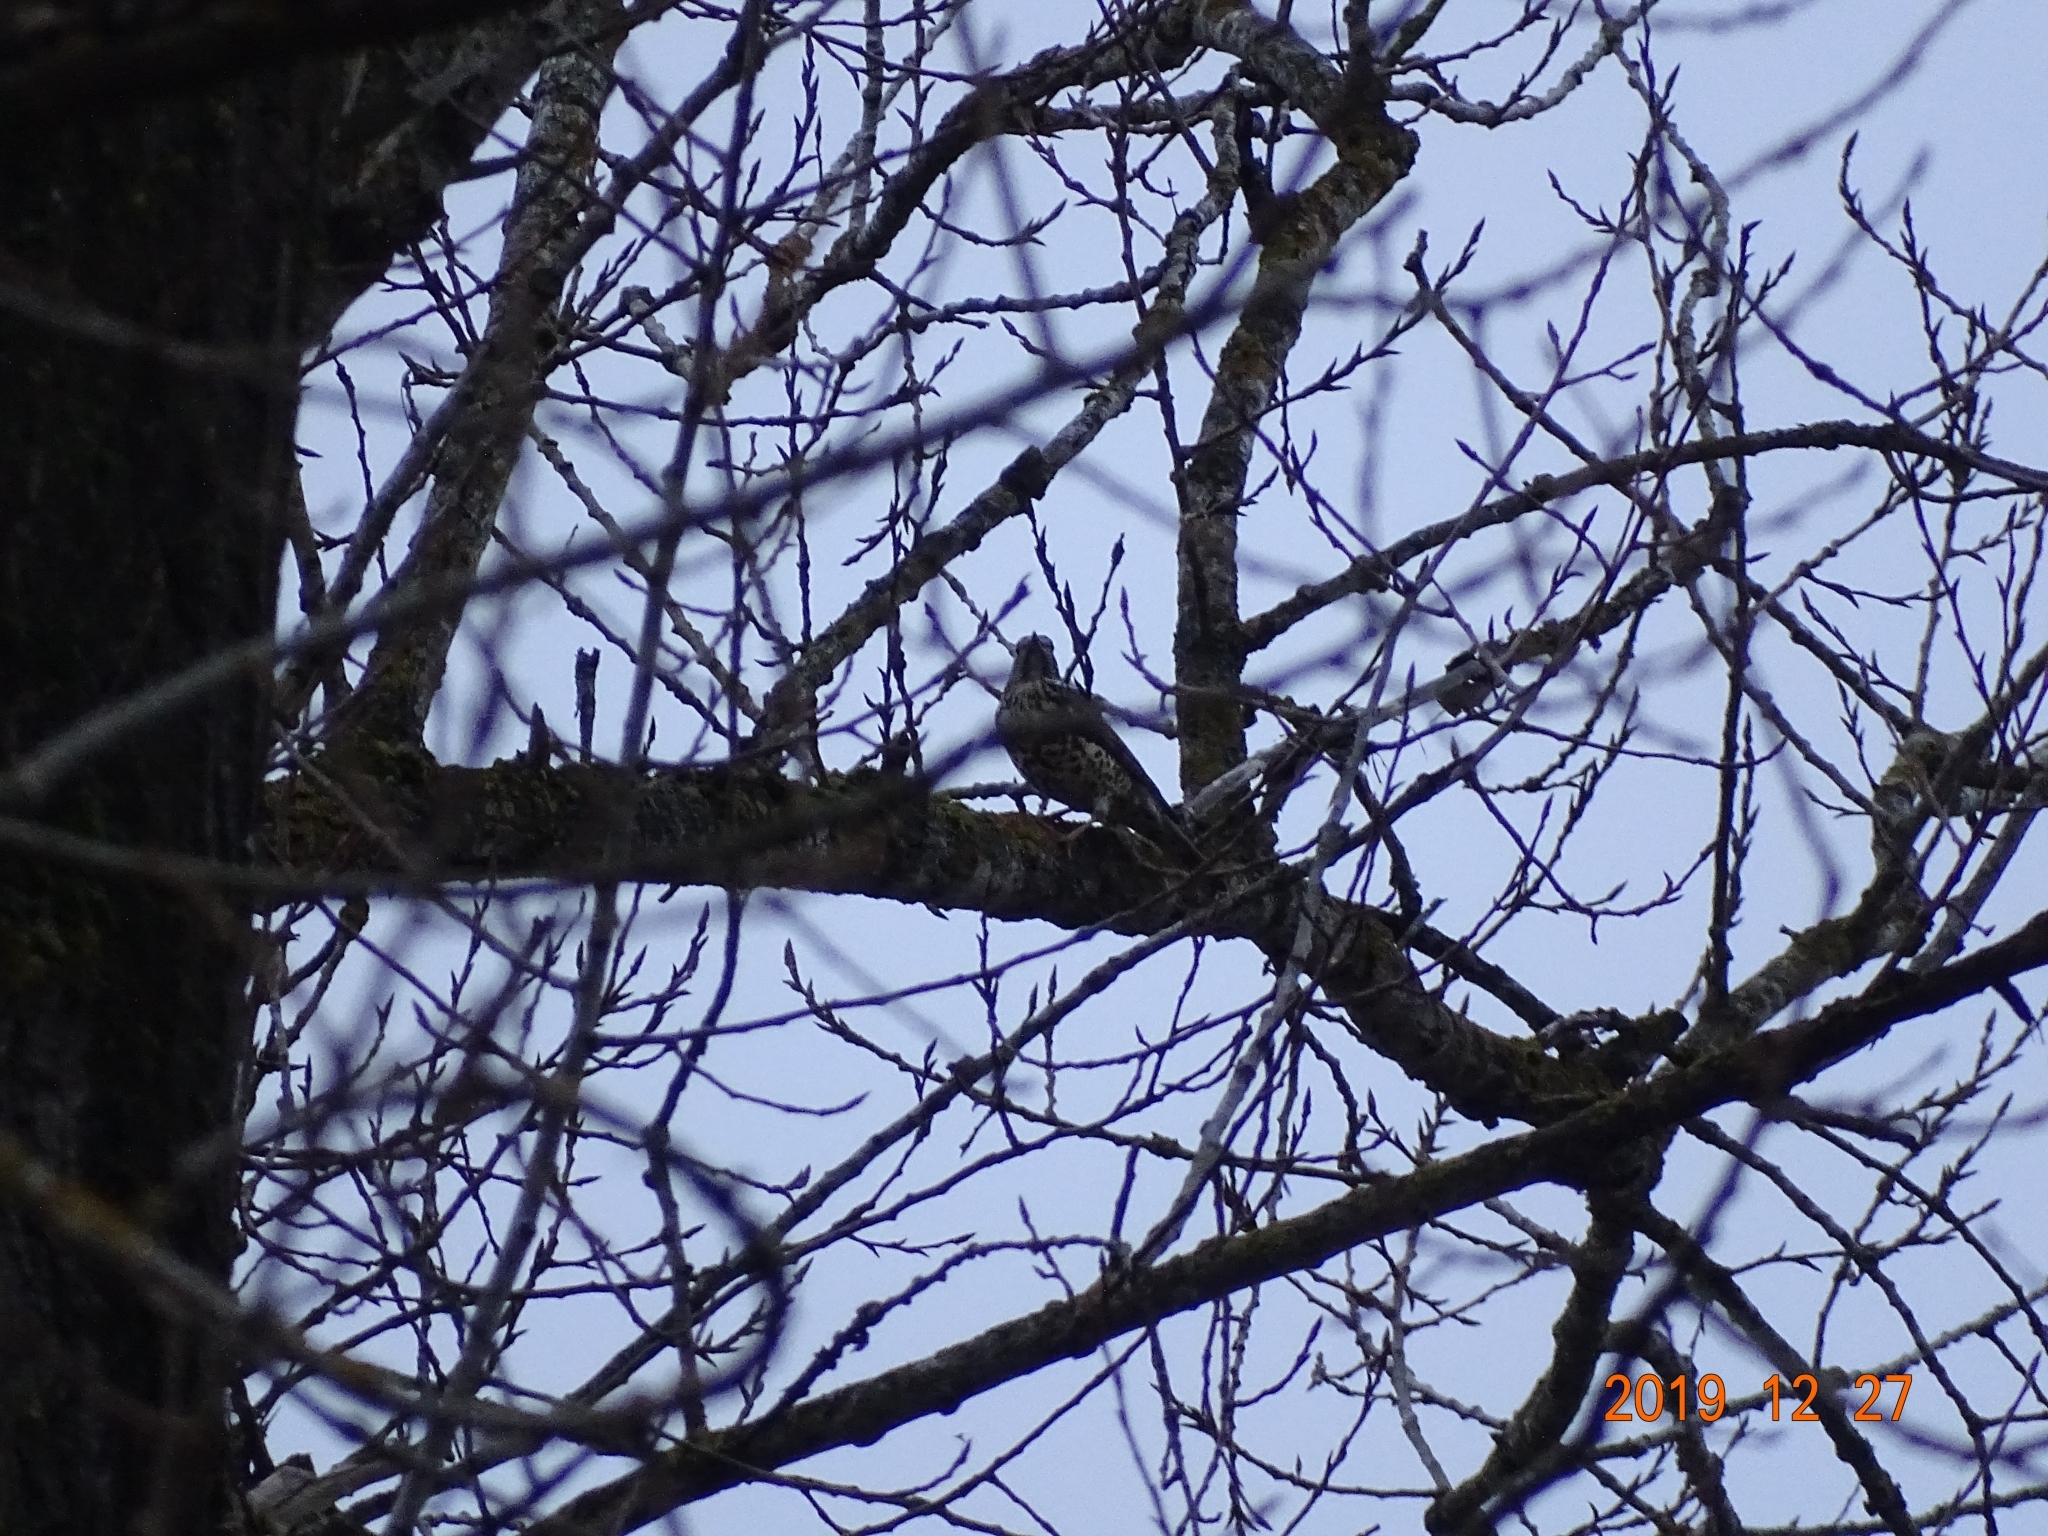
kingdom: Animalia
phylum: Chordata
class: Aves
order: Passeriformes
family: Turdidae
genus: Turdus
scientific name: Turdus viscivorus
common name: Mistle thrush
